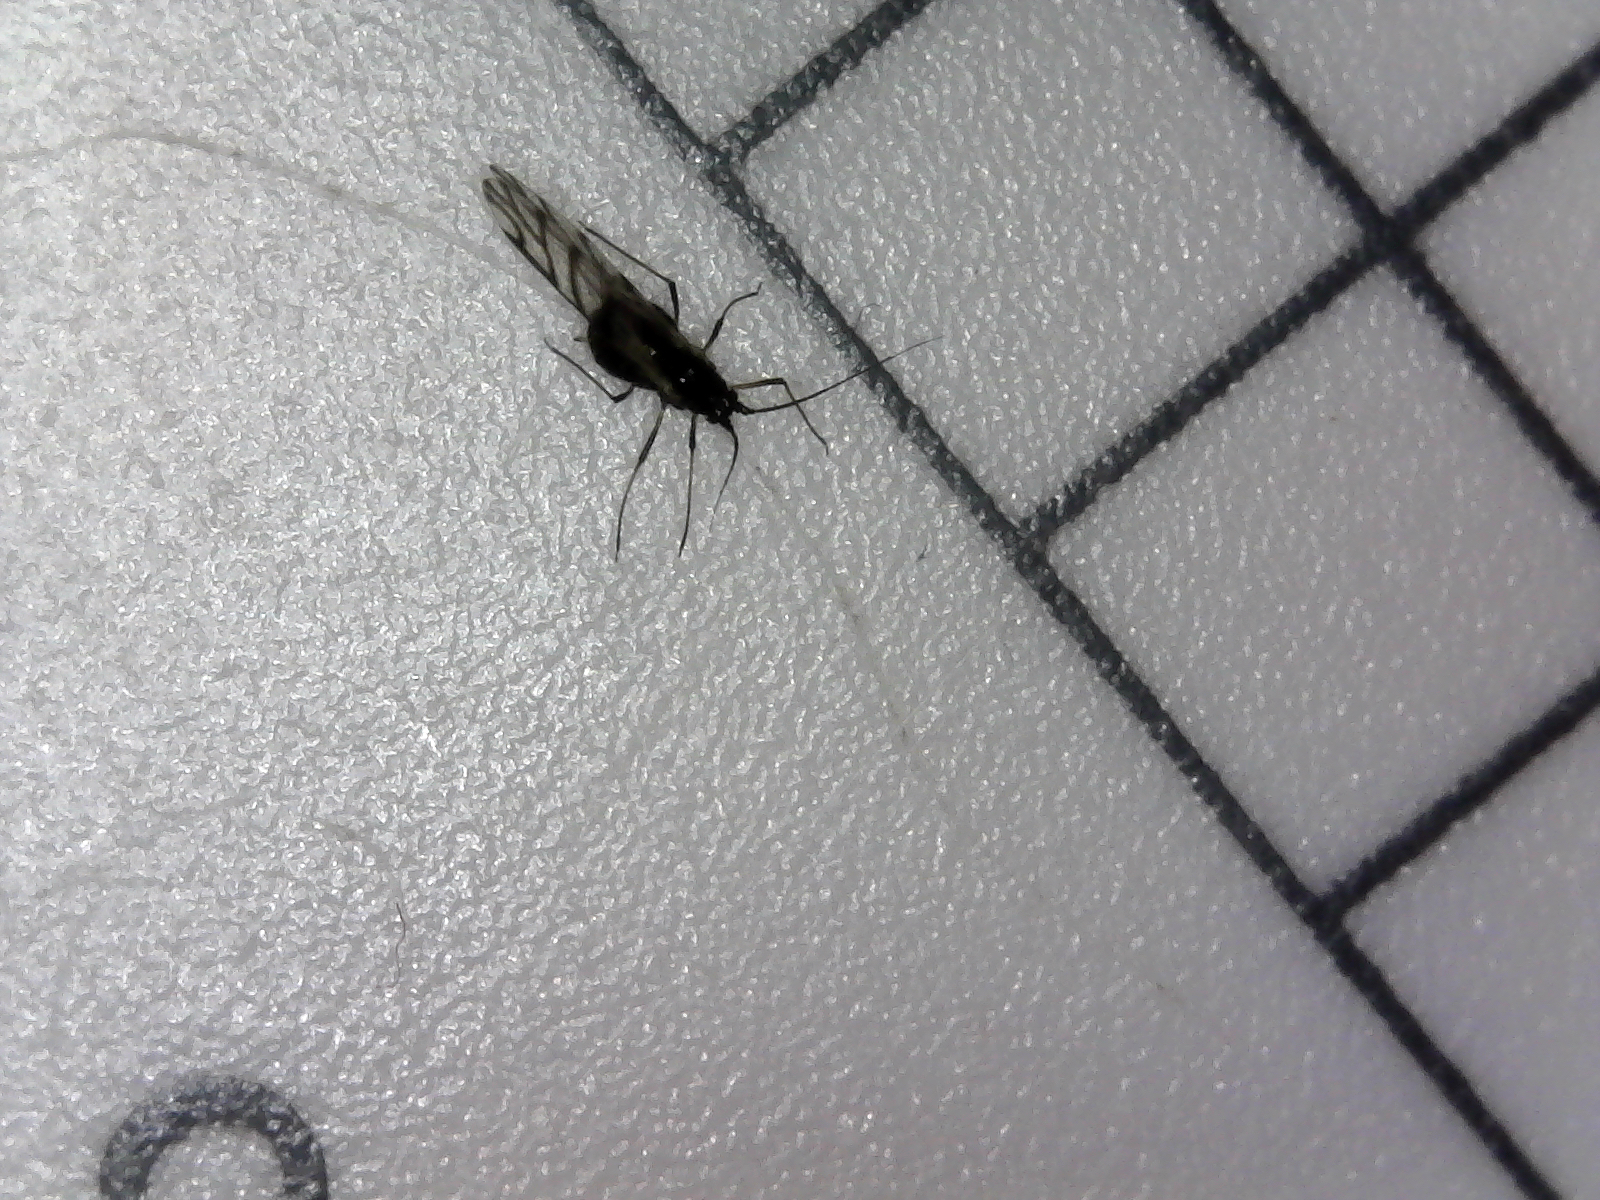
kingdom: Animalia
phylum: Arthropoda
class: Insecta
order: Hemiptera
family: Aphididae
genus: Neotoxoptera
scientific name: Neotoxoptera formosana
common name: Onion aphid
